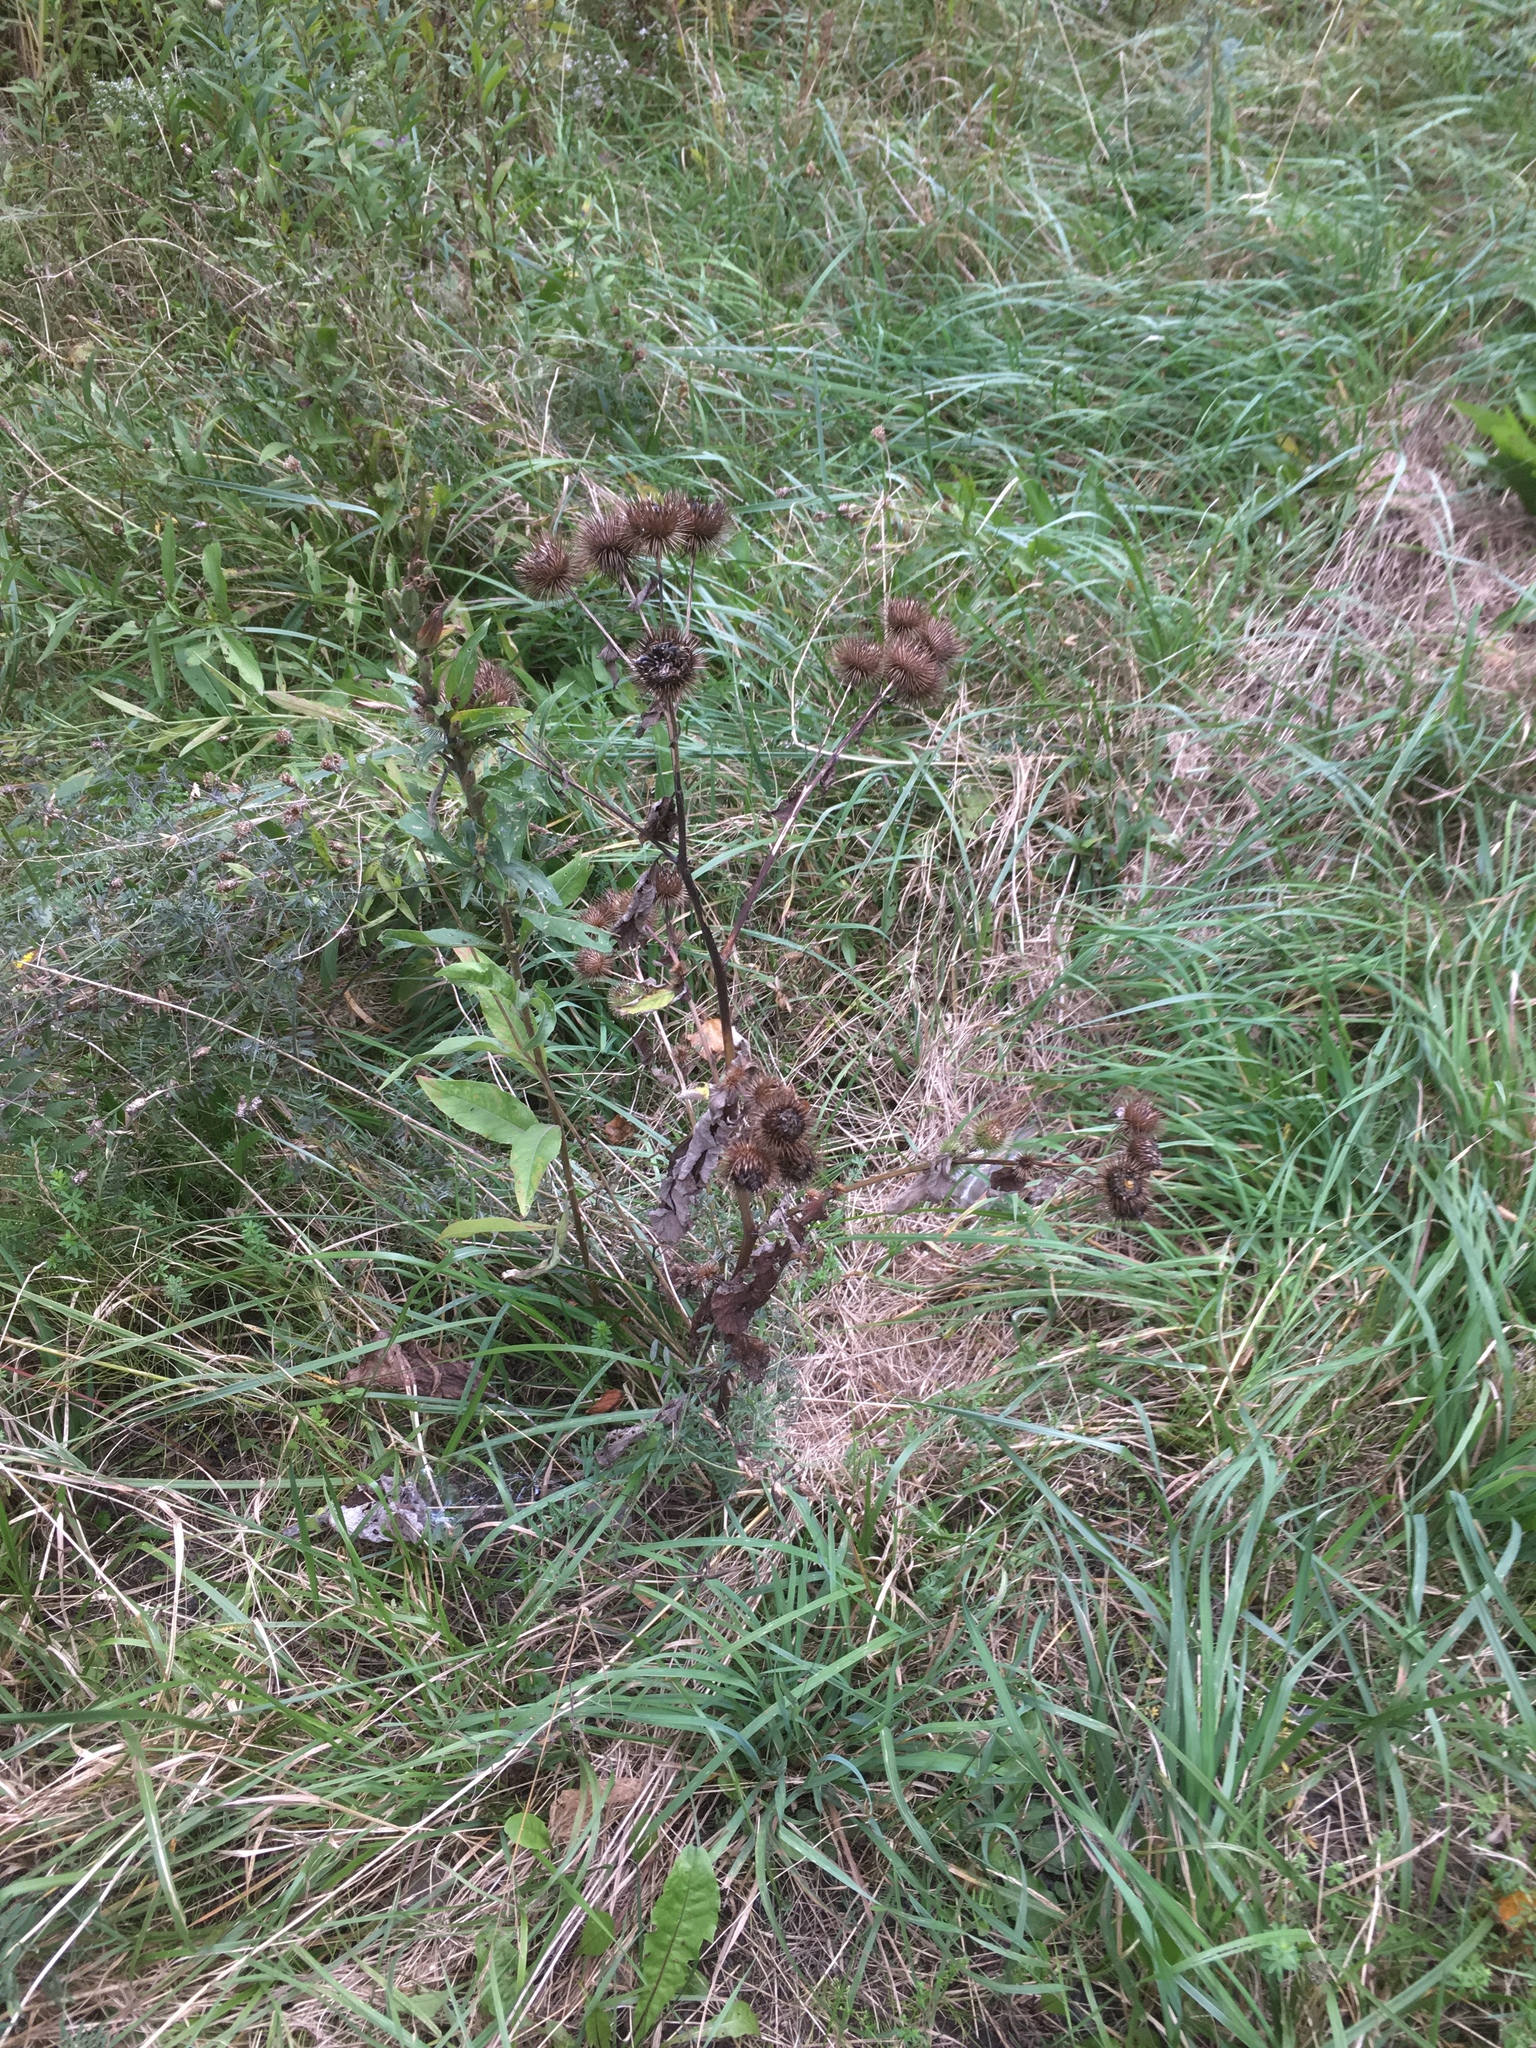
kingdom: Plantae
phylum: Tracheophyta
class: Magnoliopsida
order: Asterales
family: Asteraceae
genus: Arctium
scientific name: Arctium lappa
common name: Greater burdock
